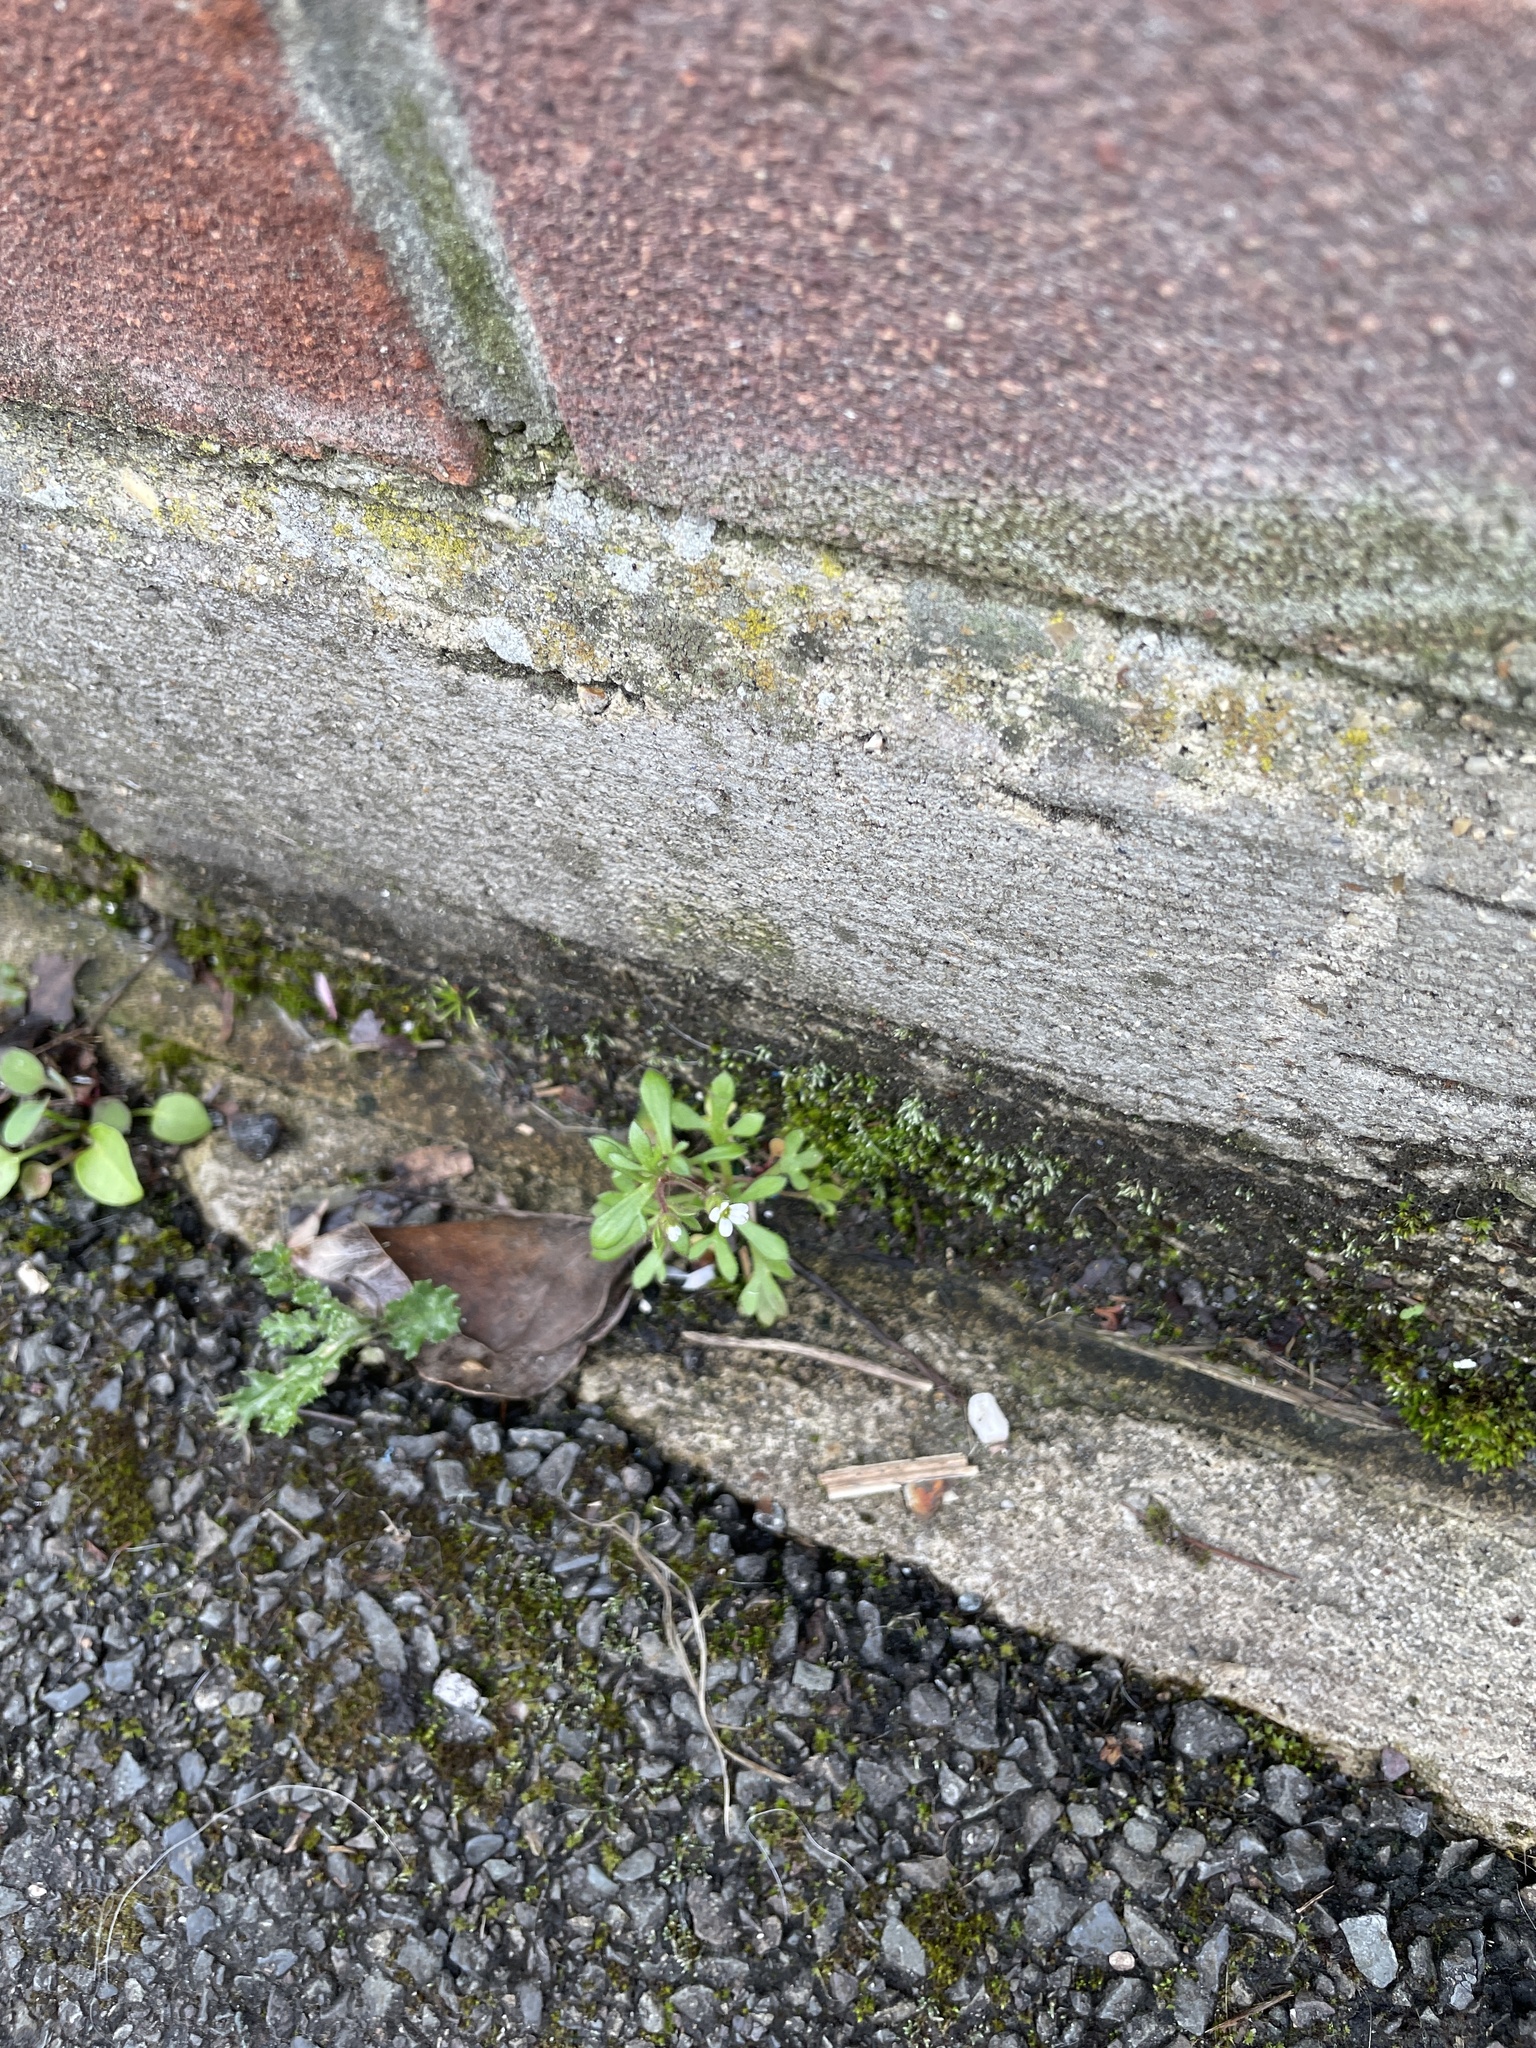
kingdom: Plantae
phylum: Tracheophyta
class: Magnoliopsida
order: Saxifragales
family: Saxifragaceae
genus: Saxifraga
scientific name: Saxifraga tridactylites
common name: Rue-leaved saxifrage
